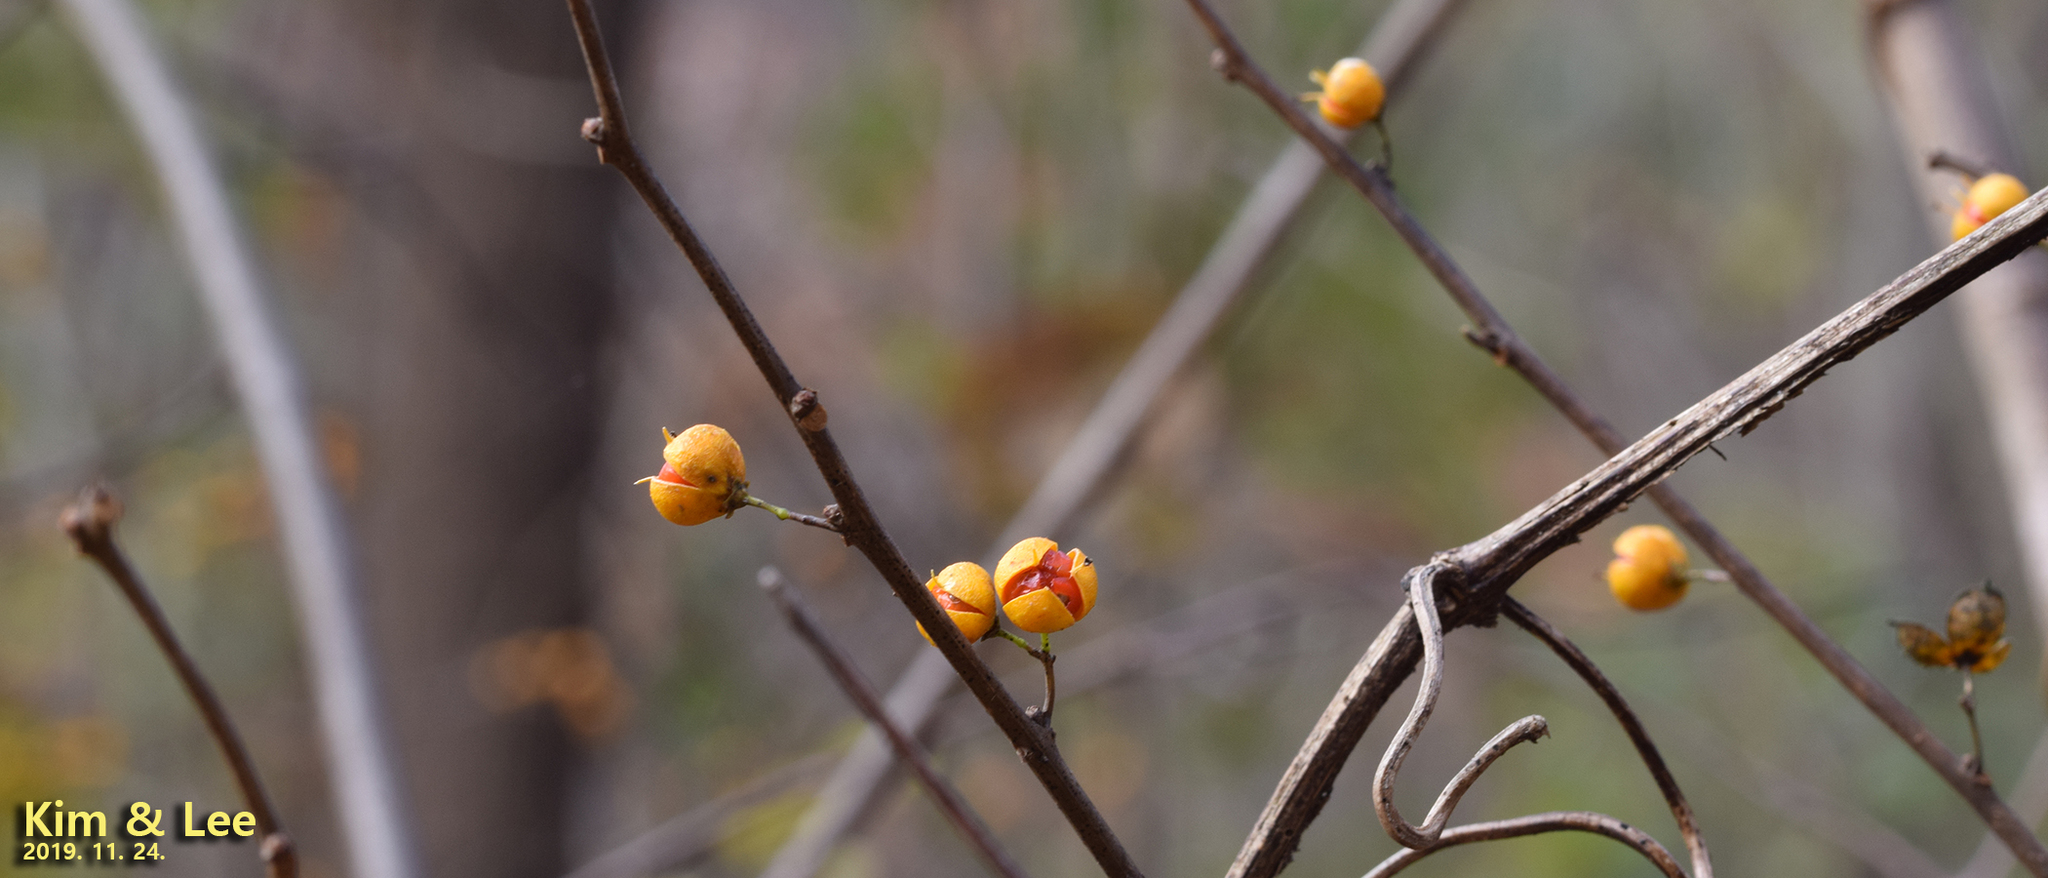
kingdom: Plantae
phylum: Tracheophyta
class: Magnoliopsida
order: Celastrales
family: Celastraceae
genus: Celastrus
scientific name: Celastrus orbiculatus
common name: Oriental bittersweet
